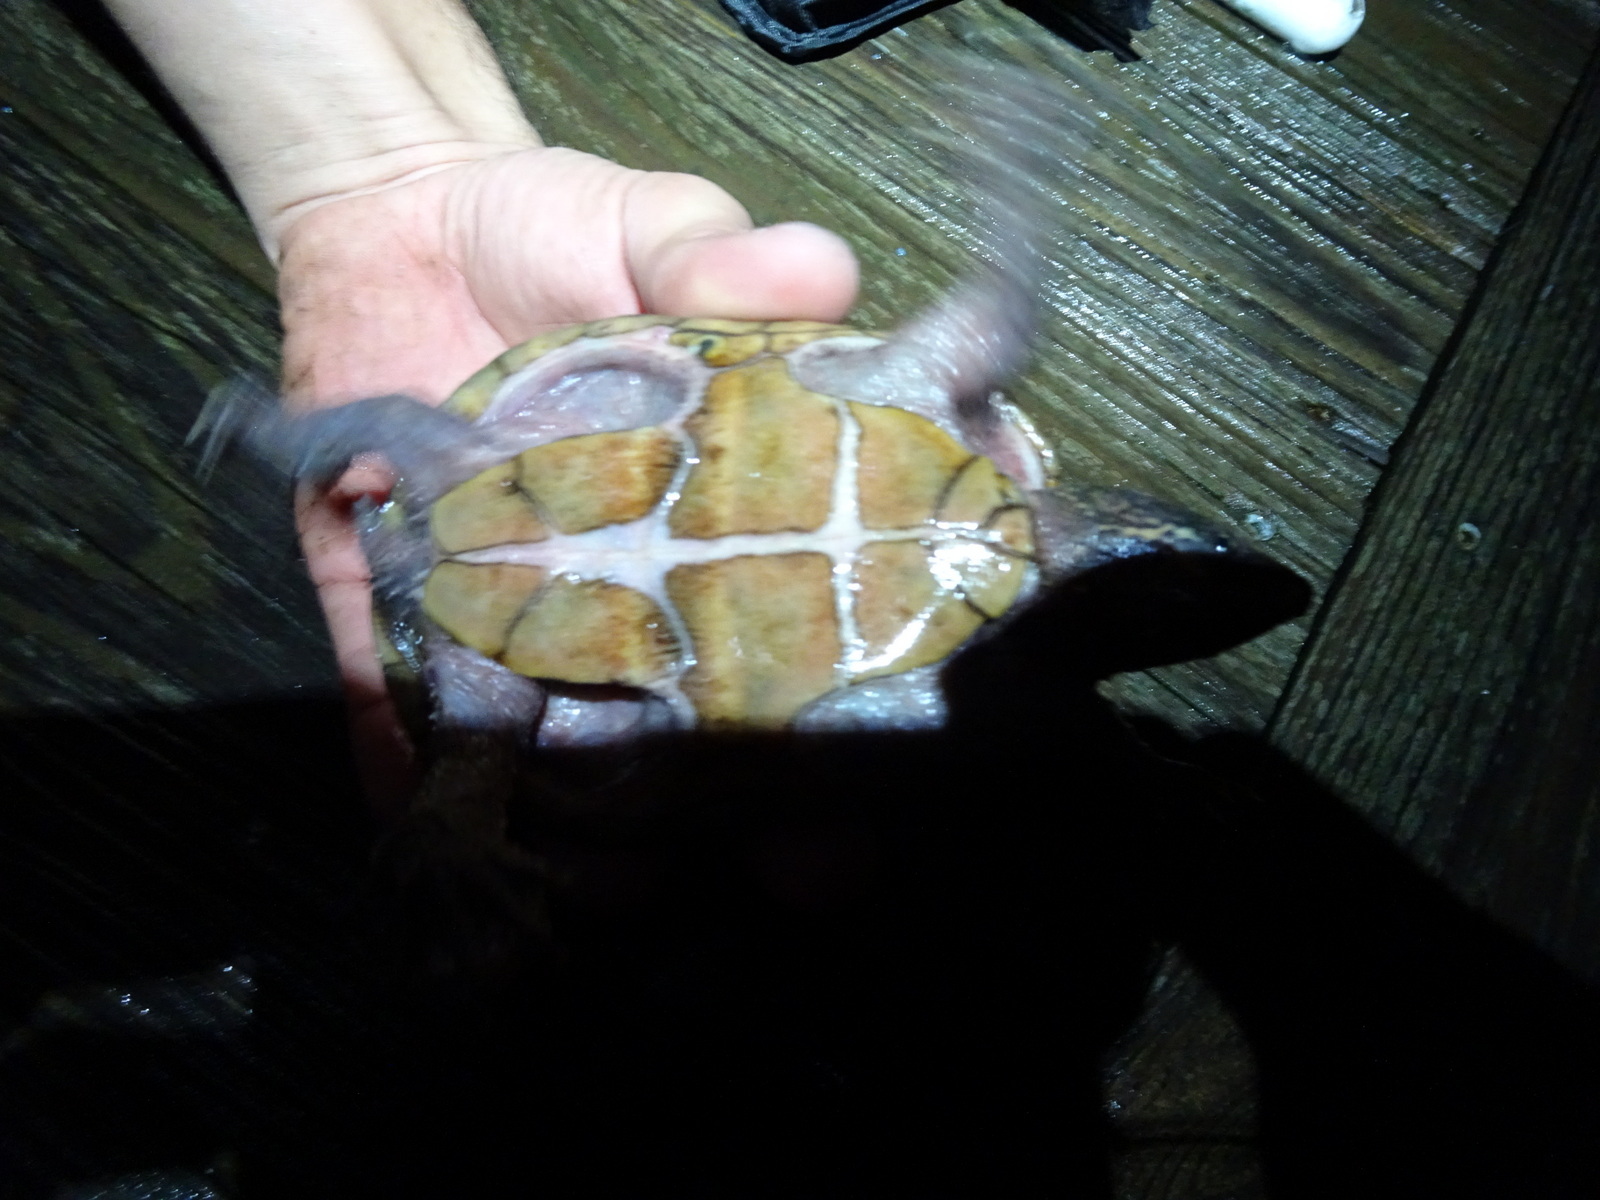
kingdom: Animalia
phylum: Chordata
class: Testudines
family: Kinosternidae
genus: Sternotherus
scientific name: Sternotherus odoratus
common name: Common musk turtle
